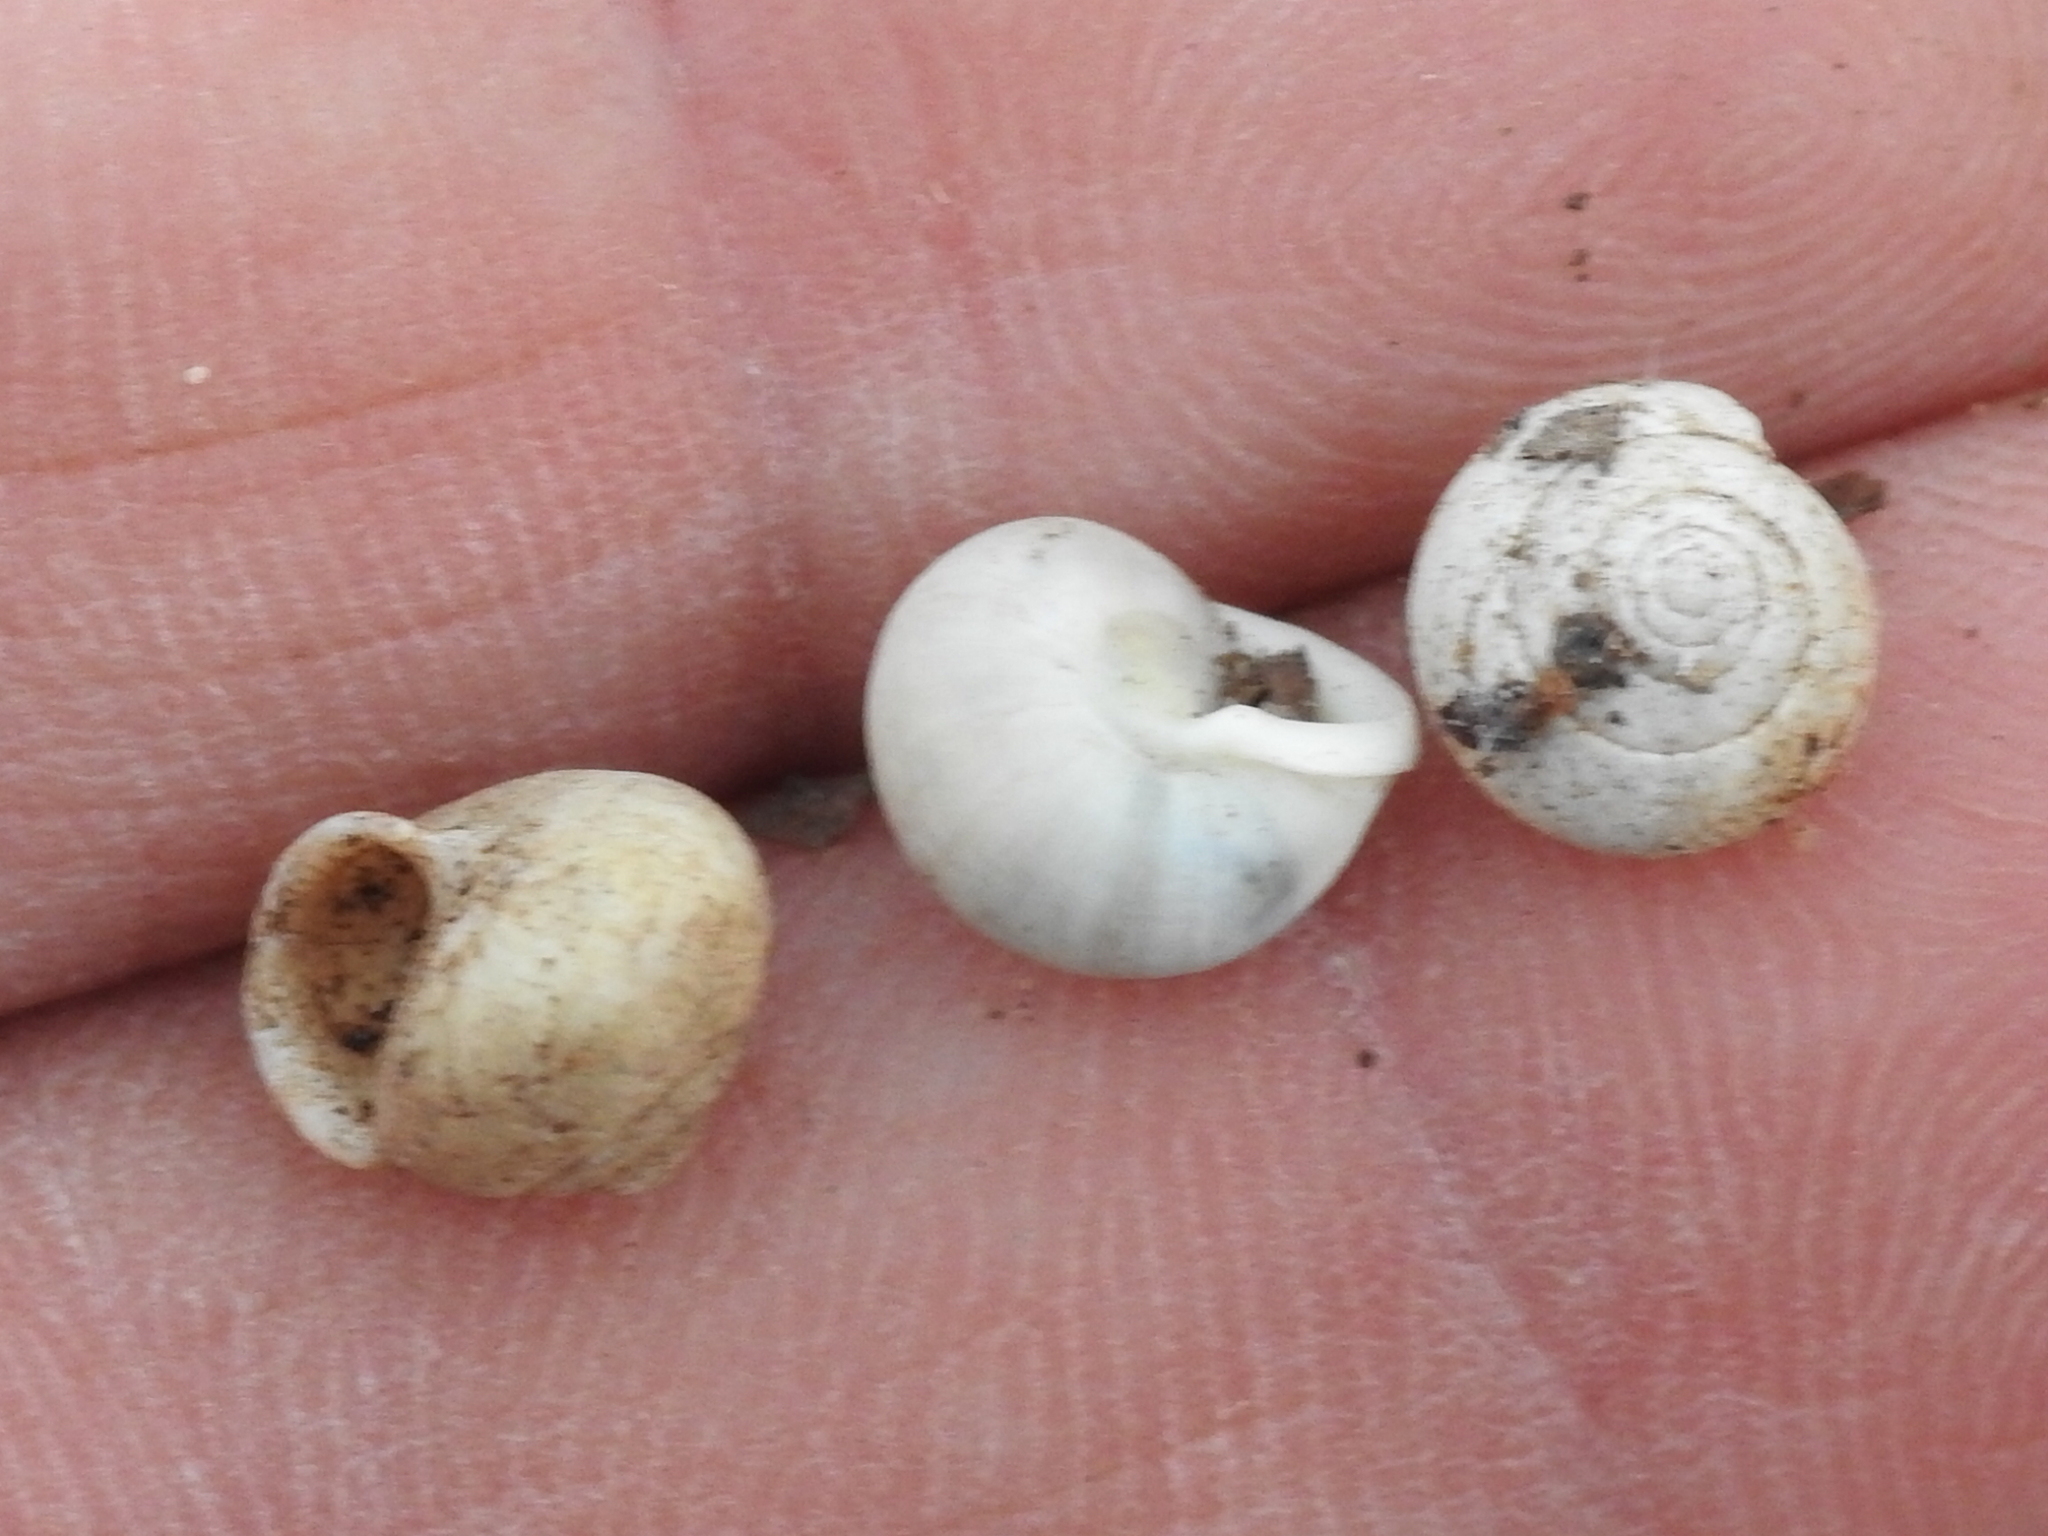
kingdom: Animalia
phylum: Mollusca
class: Gastropoda
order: Cycloneritida
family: Helicinidae
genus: Helicina
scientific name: Helicina orbiculata
